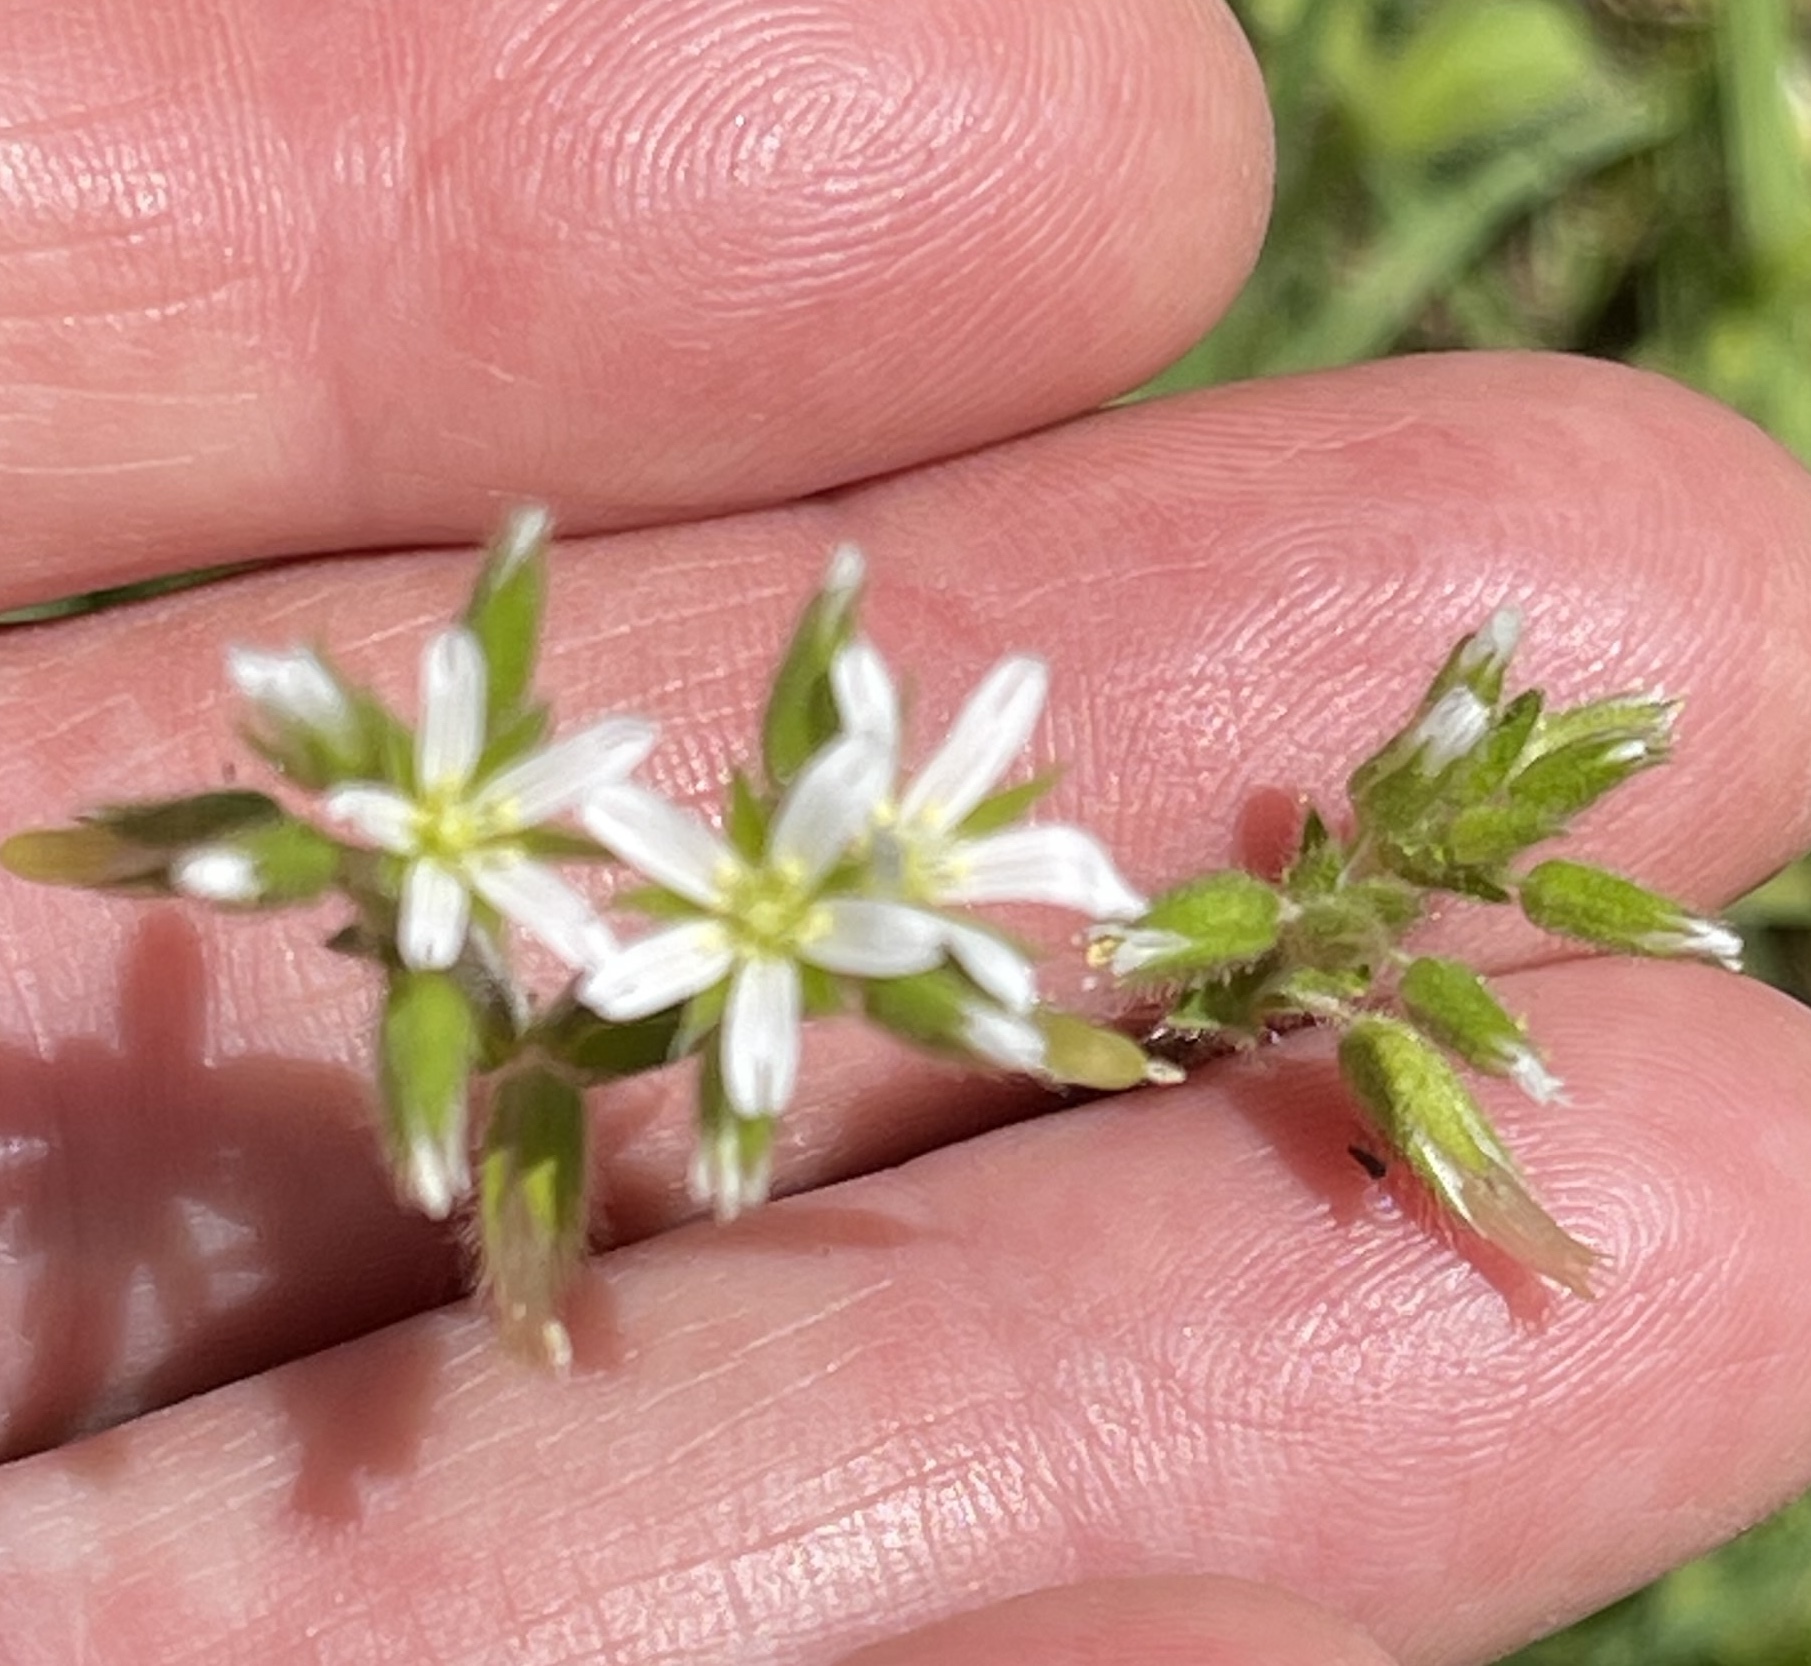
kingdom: Plantae
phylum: Tracheophyta
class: Magnoliopsida
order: Caryophyllales
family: Caryophyllaceae
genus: Cerastium
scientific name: Cerastium glomeratum
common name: Sticky chickweed
